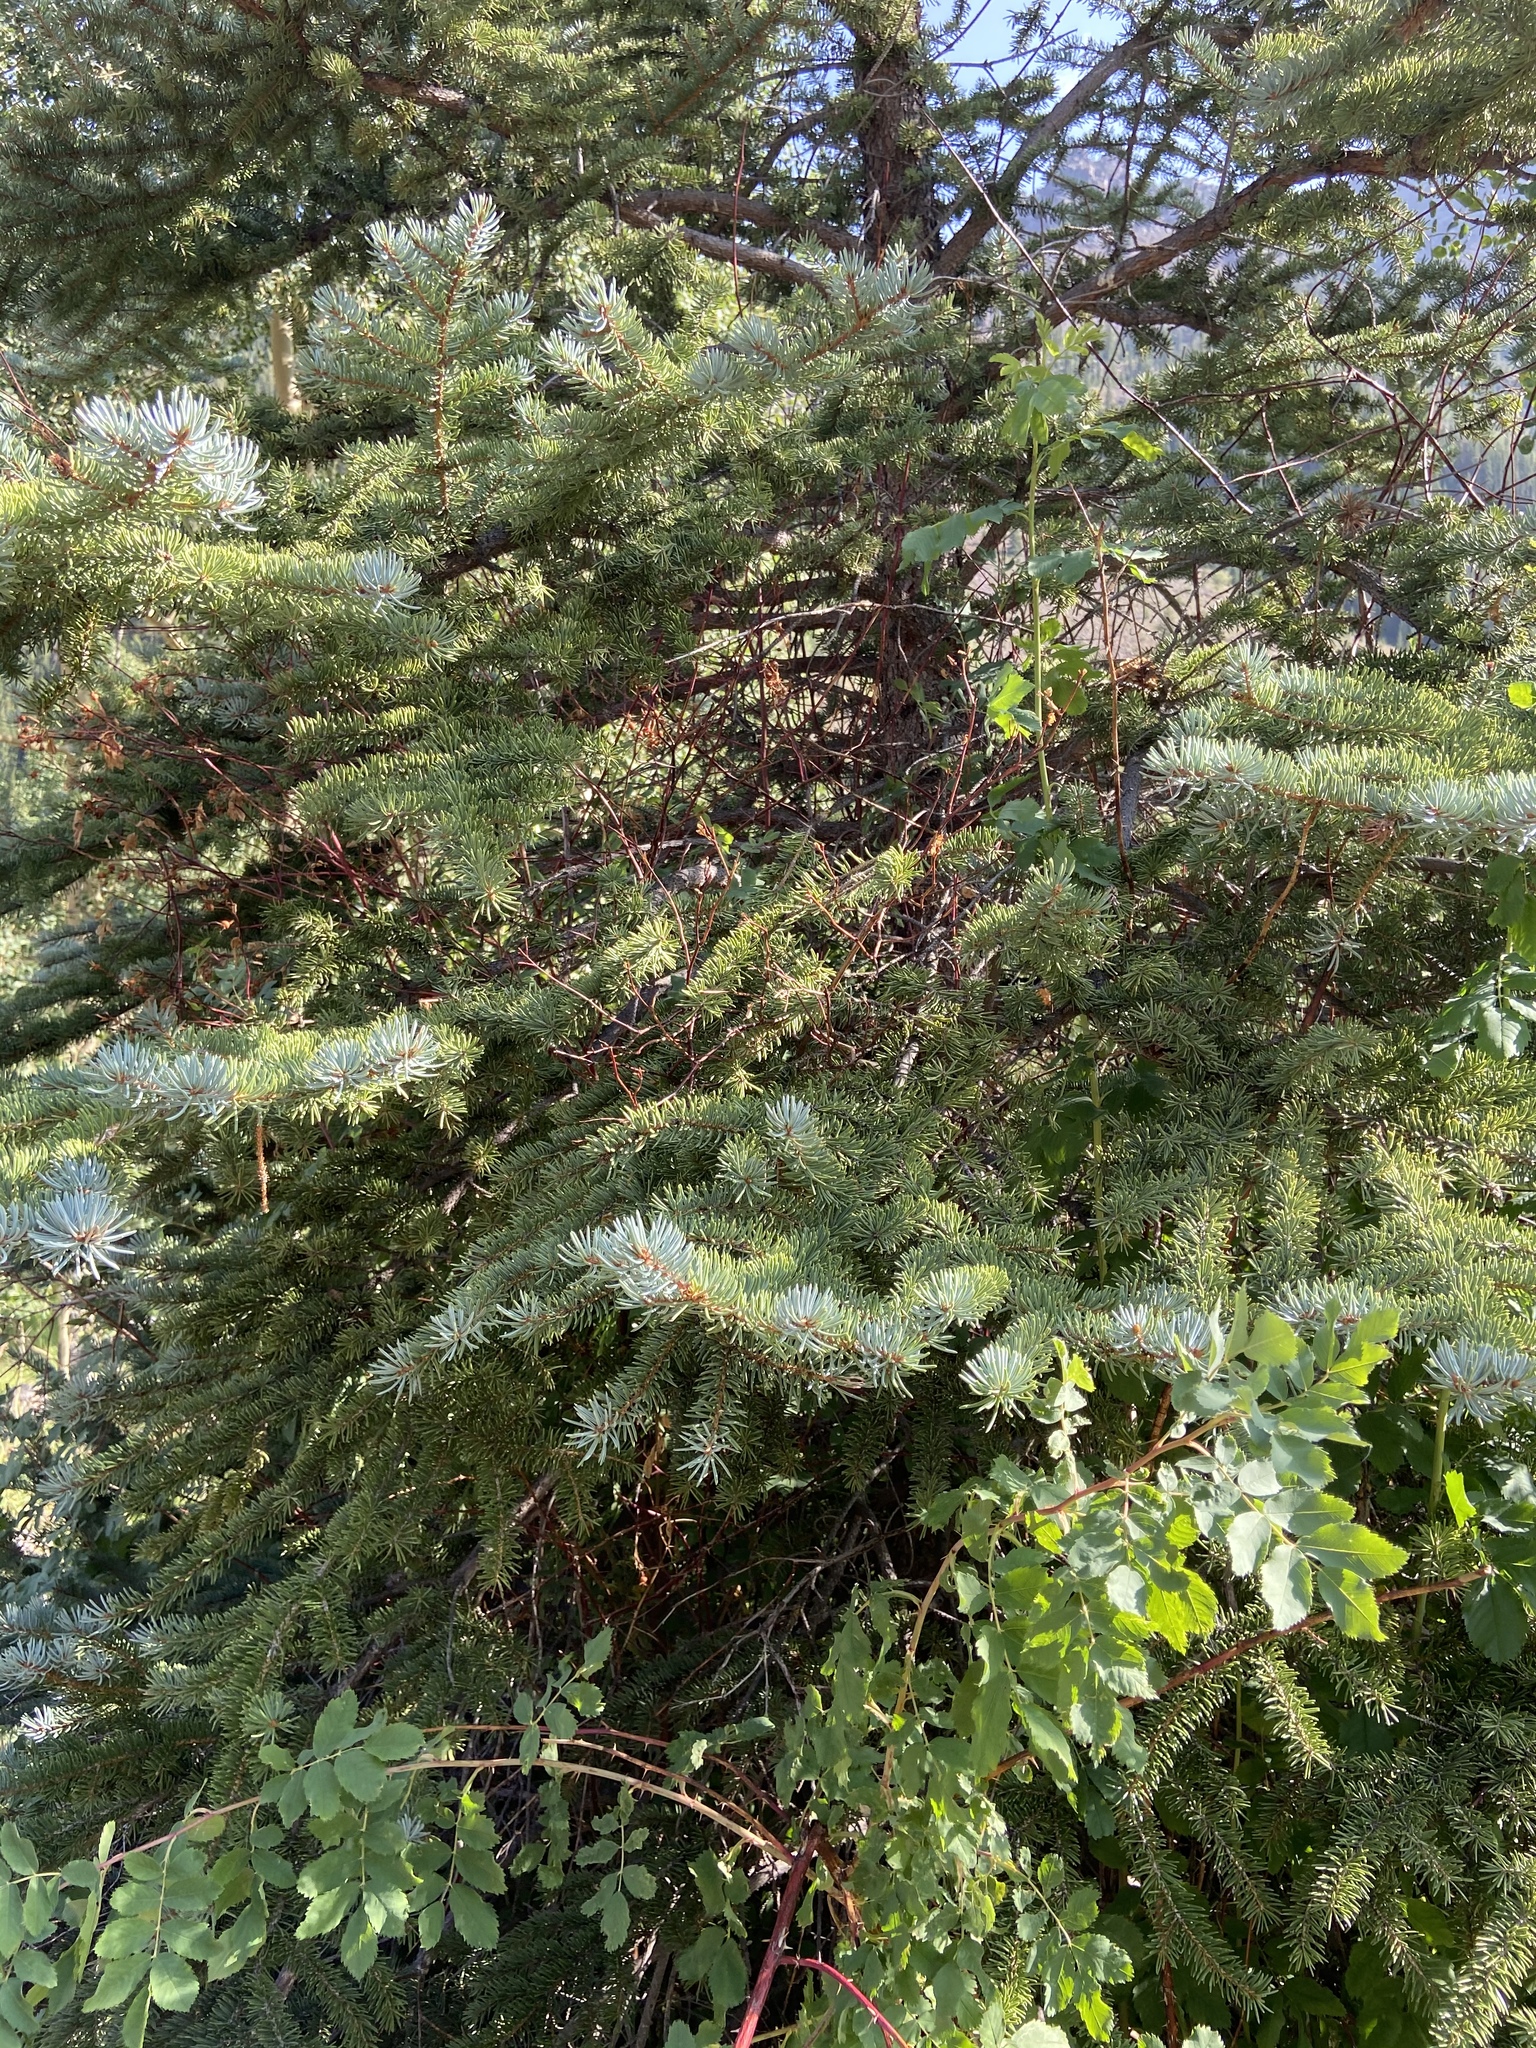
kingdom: Plantae
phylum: Tracheophyta
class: Pinopsida
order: Pinales
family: Pinaceae
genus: Picea
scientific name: Picea pungens
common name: Colorado spruce
